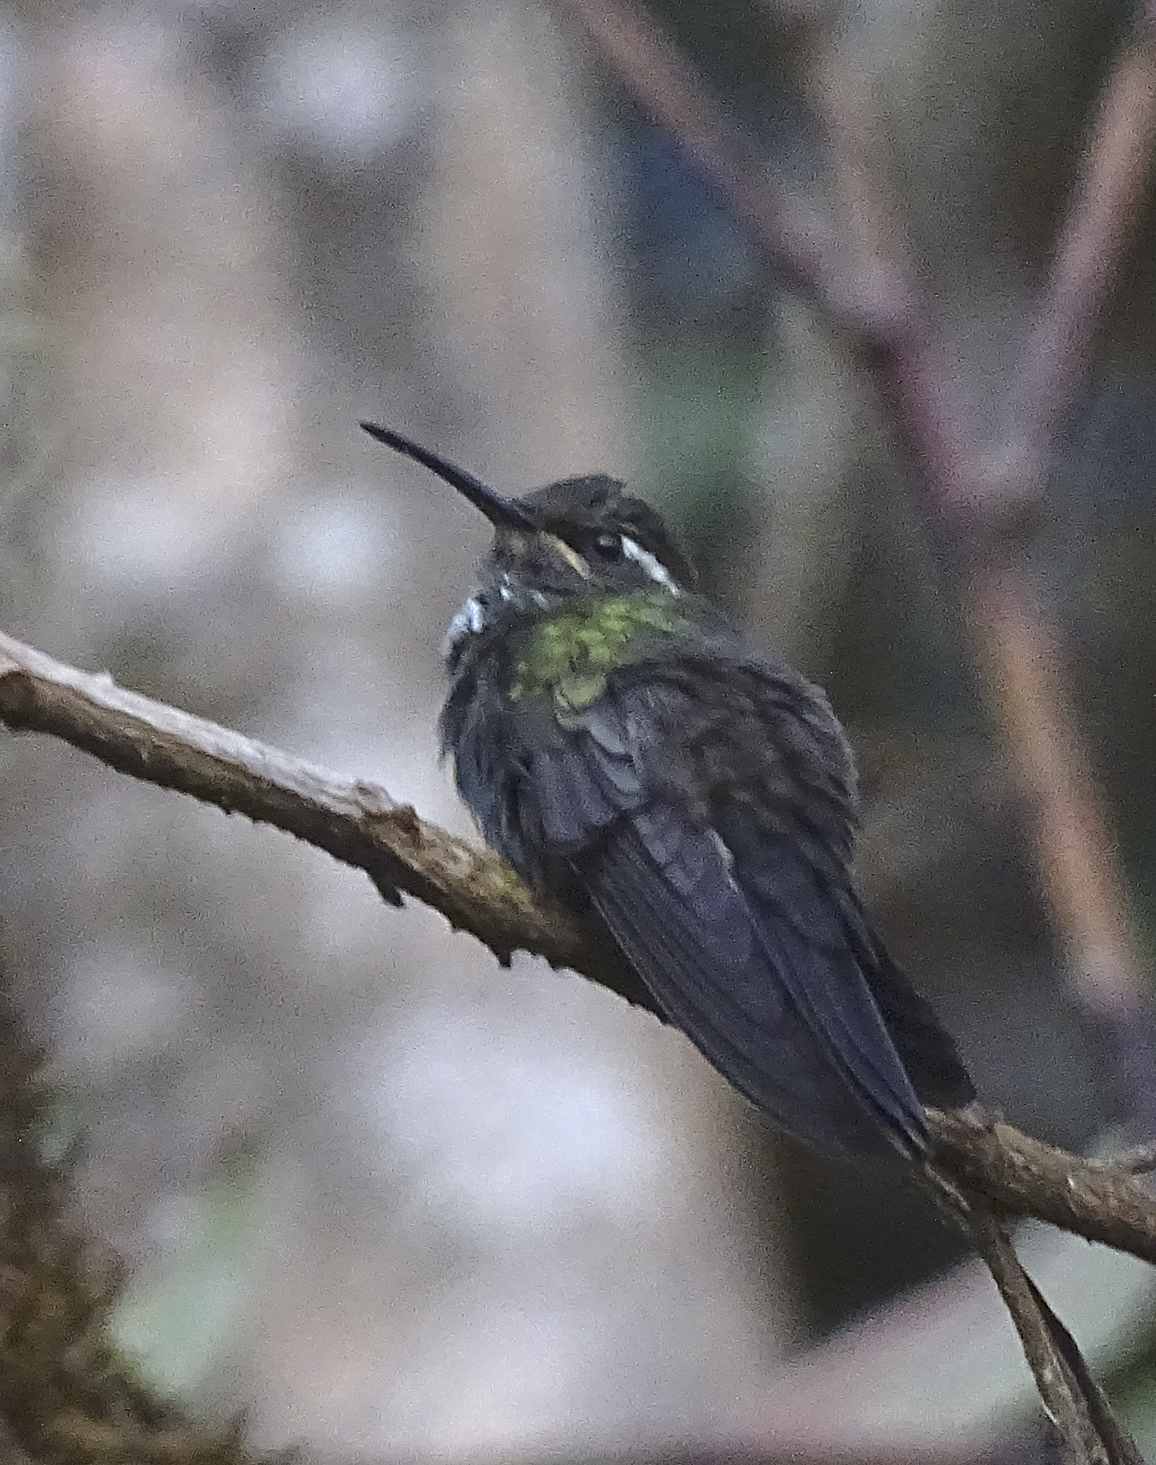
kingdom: Animalia
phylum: Chordata
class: Aves
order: Apodiformes
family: Trochilidae
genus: Lampornis
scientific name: Lampornis viridipallens
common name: Green-throated mountain-gem
